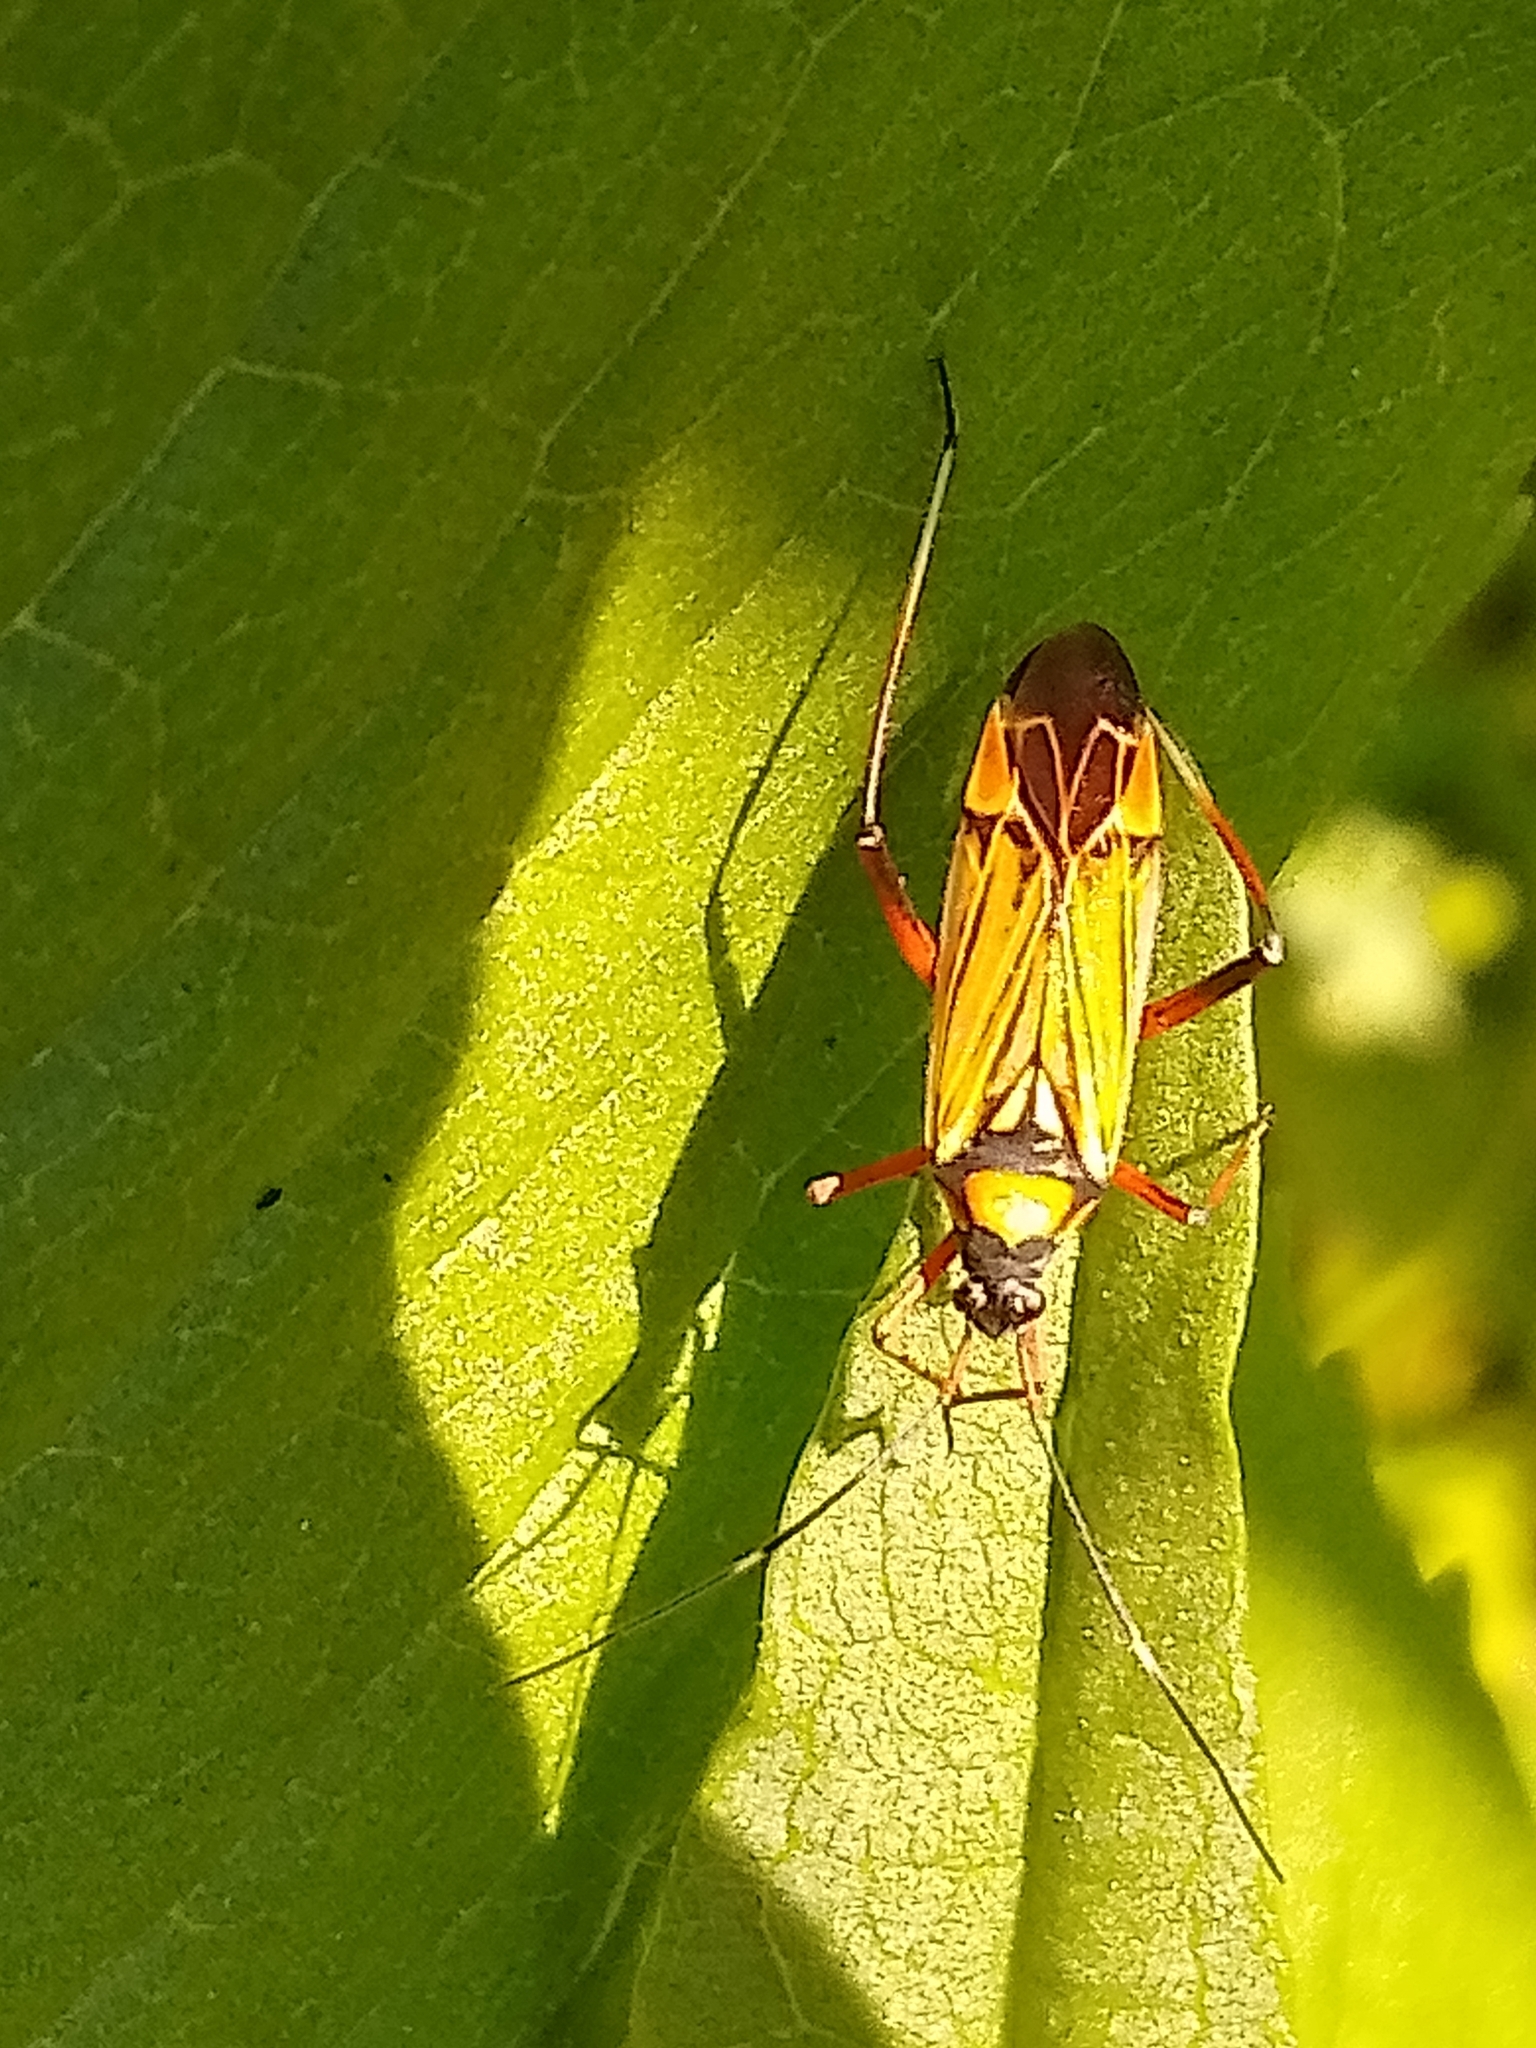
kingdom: Animalia
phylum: Arthropoda
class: Insecta
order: Hemiptera
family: Miridae
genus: Miris
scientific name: Miris striatus
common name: Fine streaked bugkin
